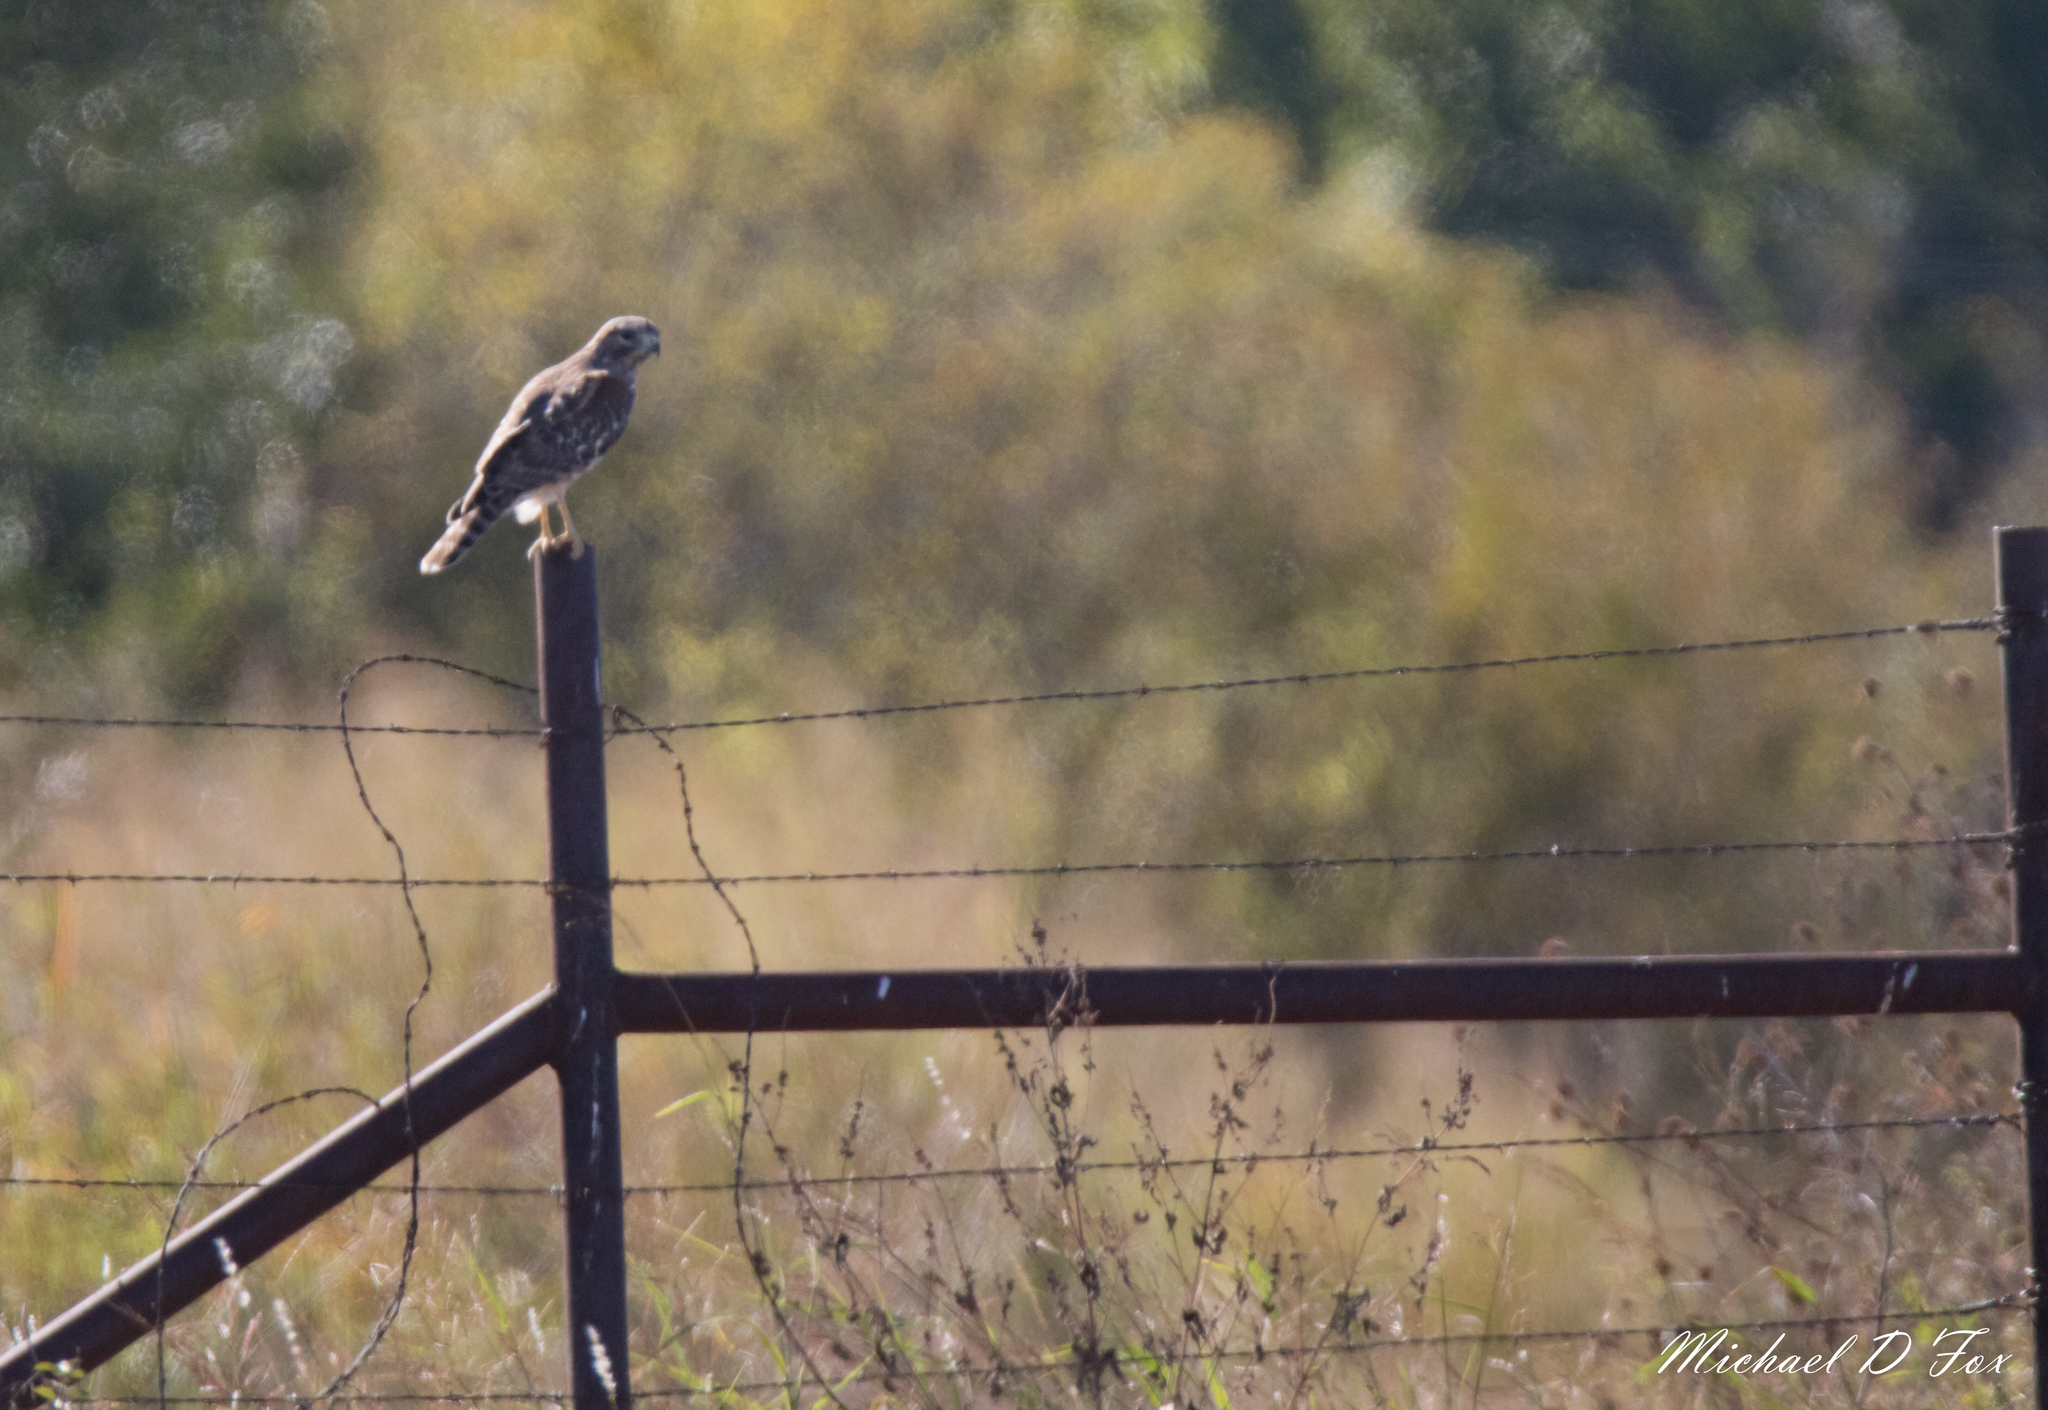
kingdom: Animalia
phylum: Chordata
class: Aves
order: Accipitriformes
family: Accipitridae
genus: Buteo
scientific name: Buteo lineatus
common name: Red-shouldered hawk
